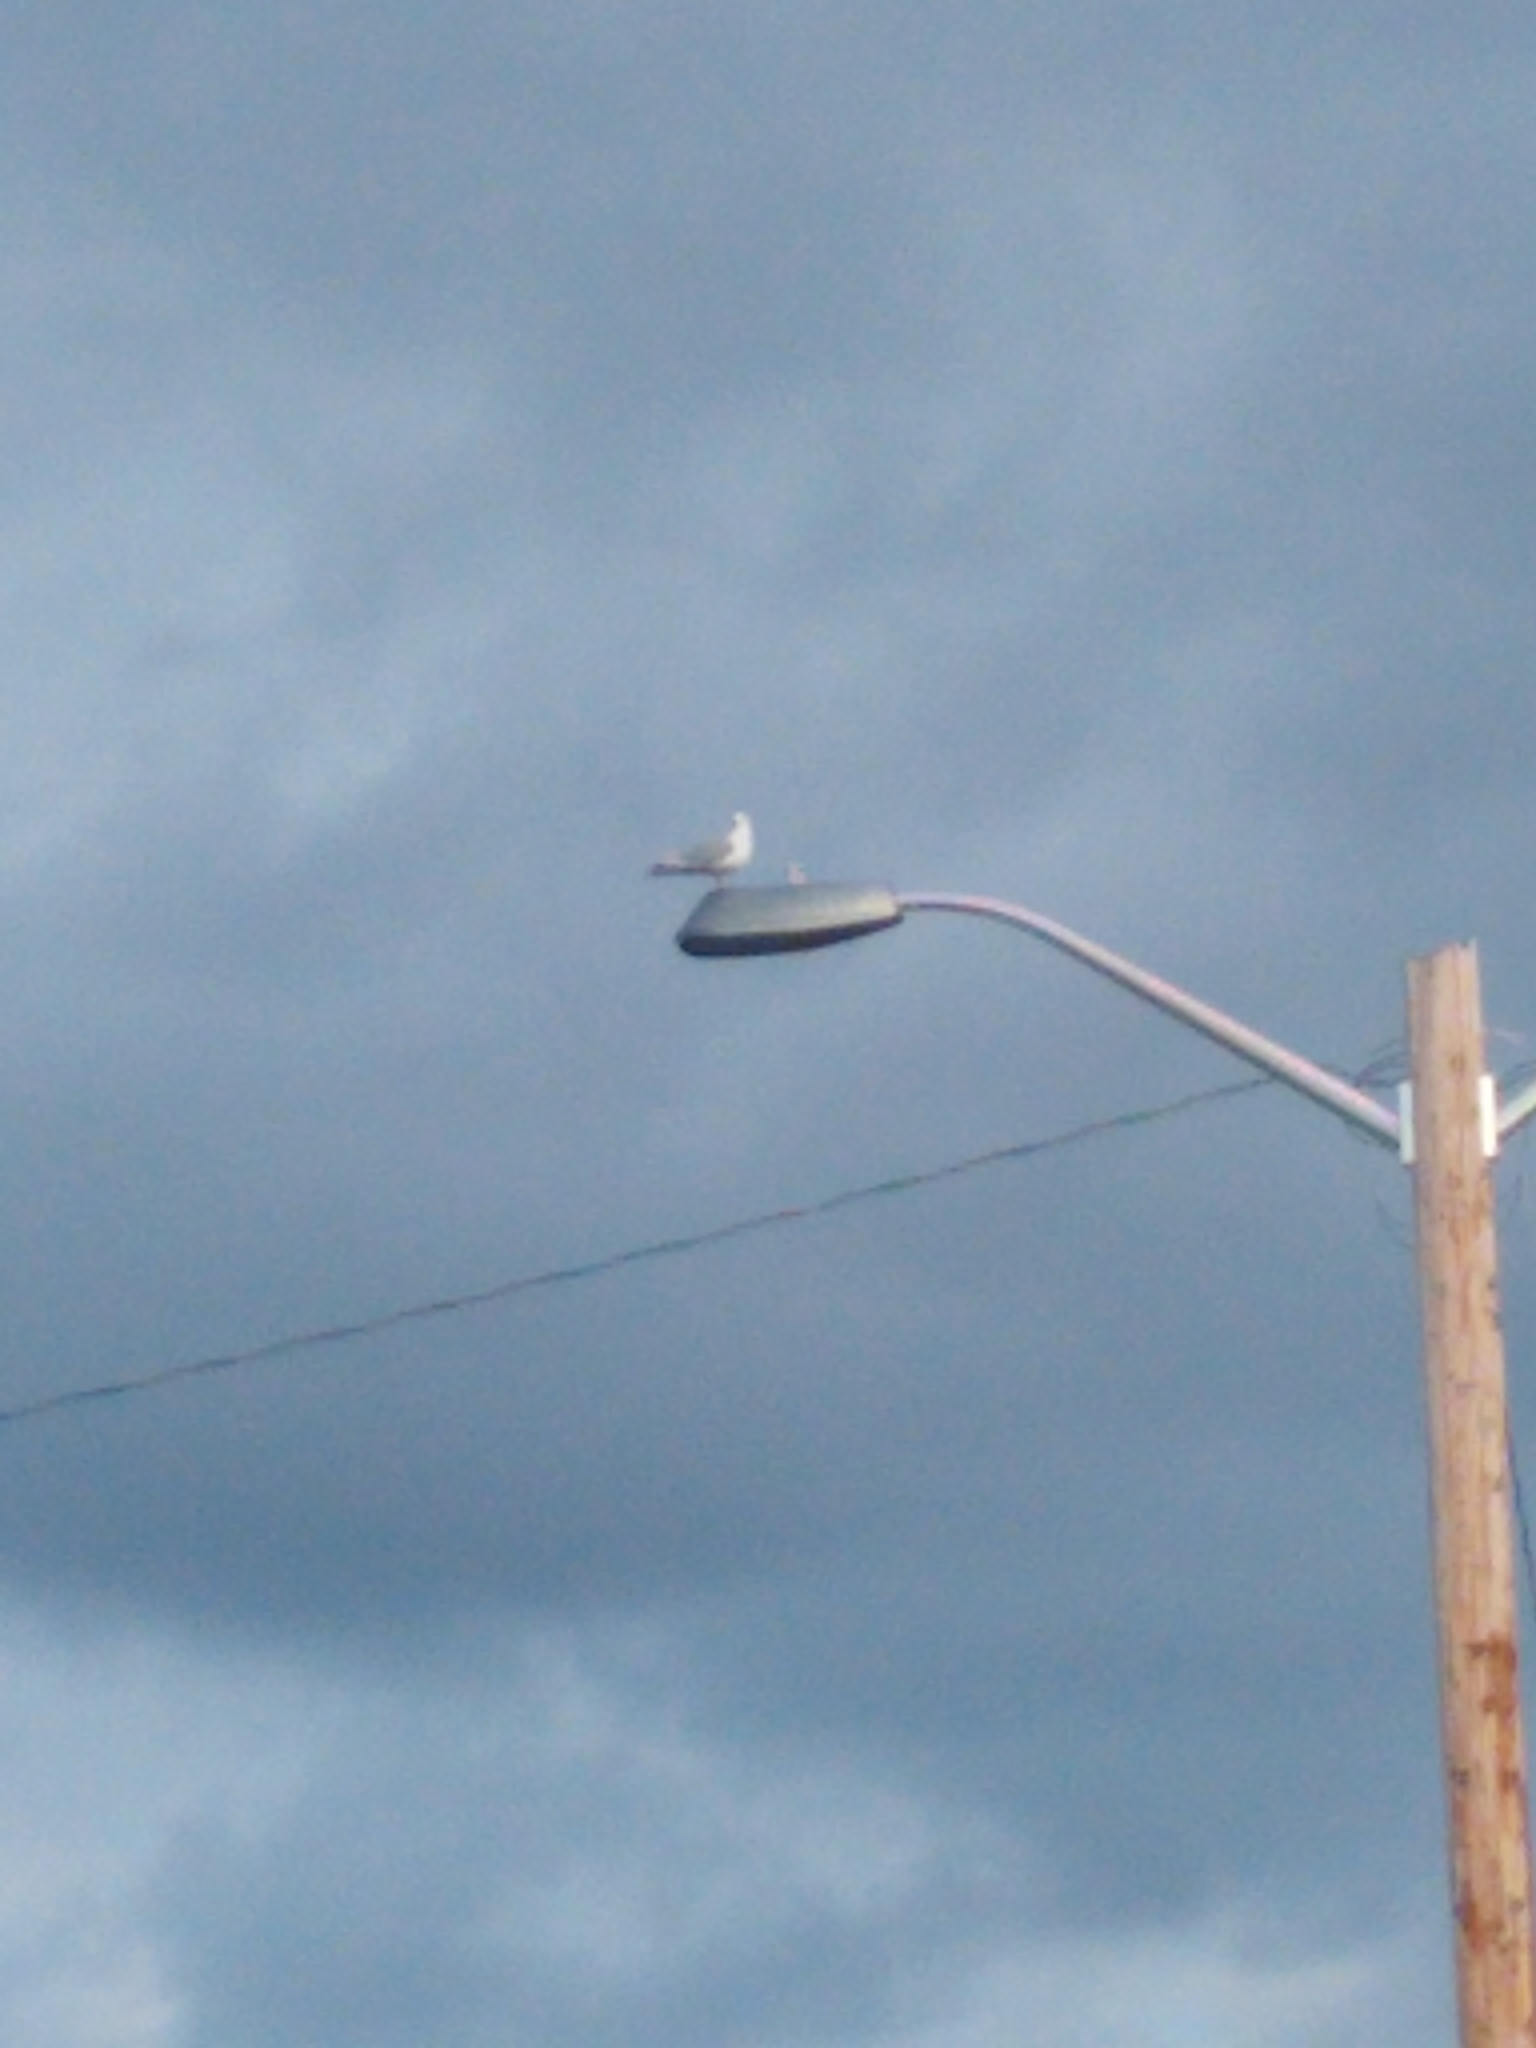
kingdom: Animalia
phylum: Chordata
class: Aves
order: Charadriiformes
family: Laridae
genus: Larus
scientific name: Larus
